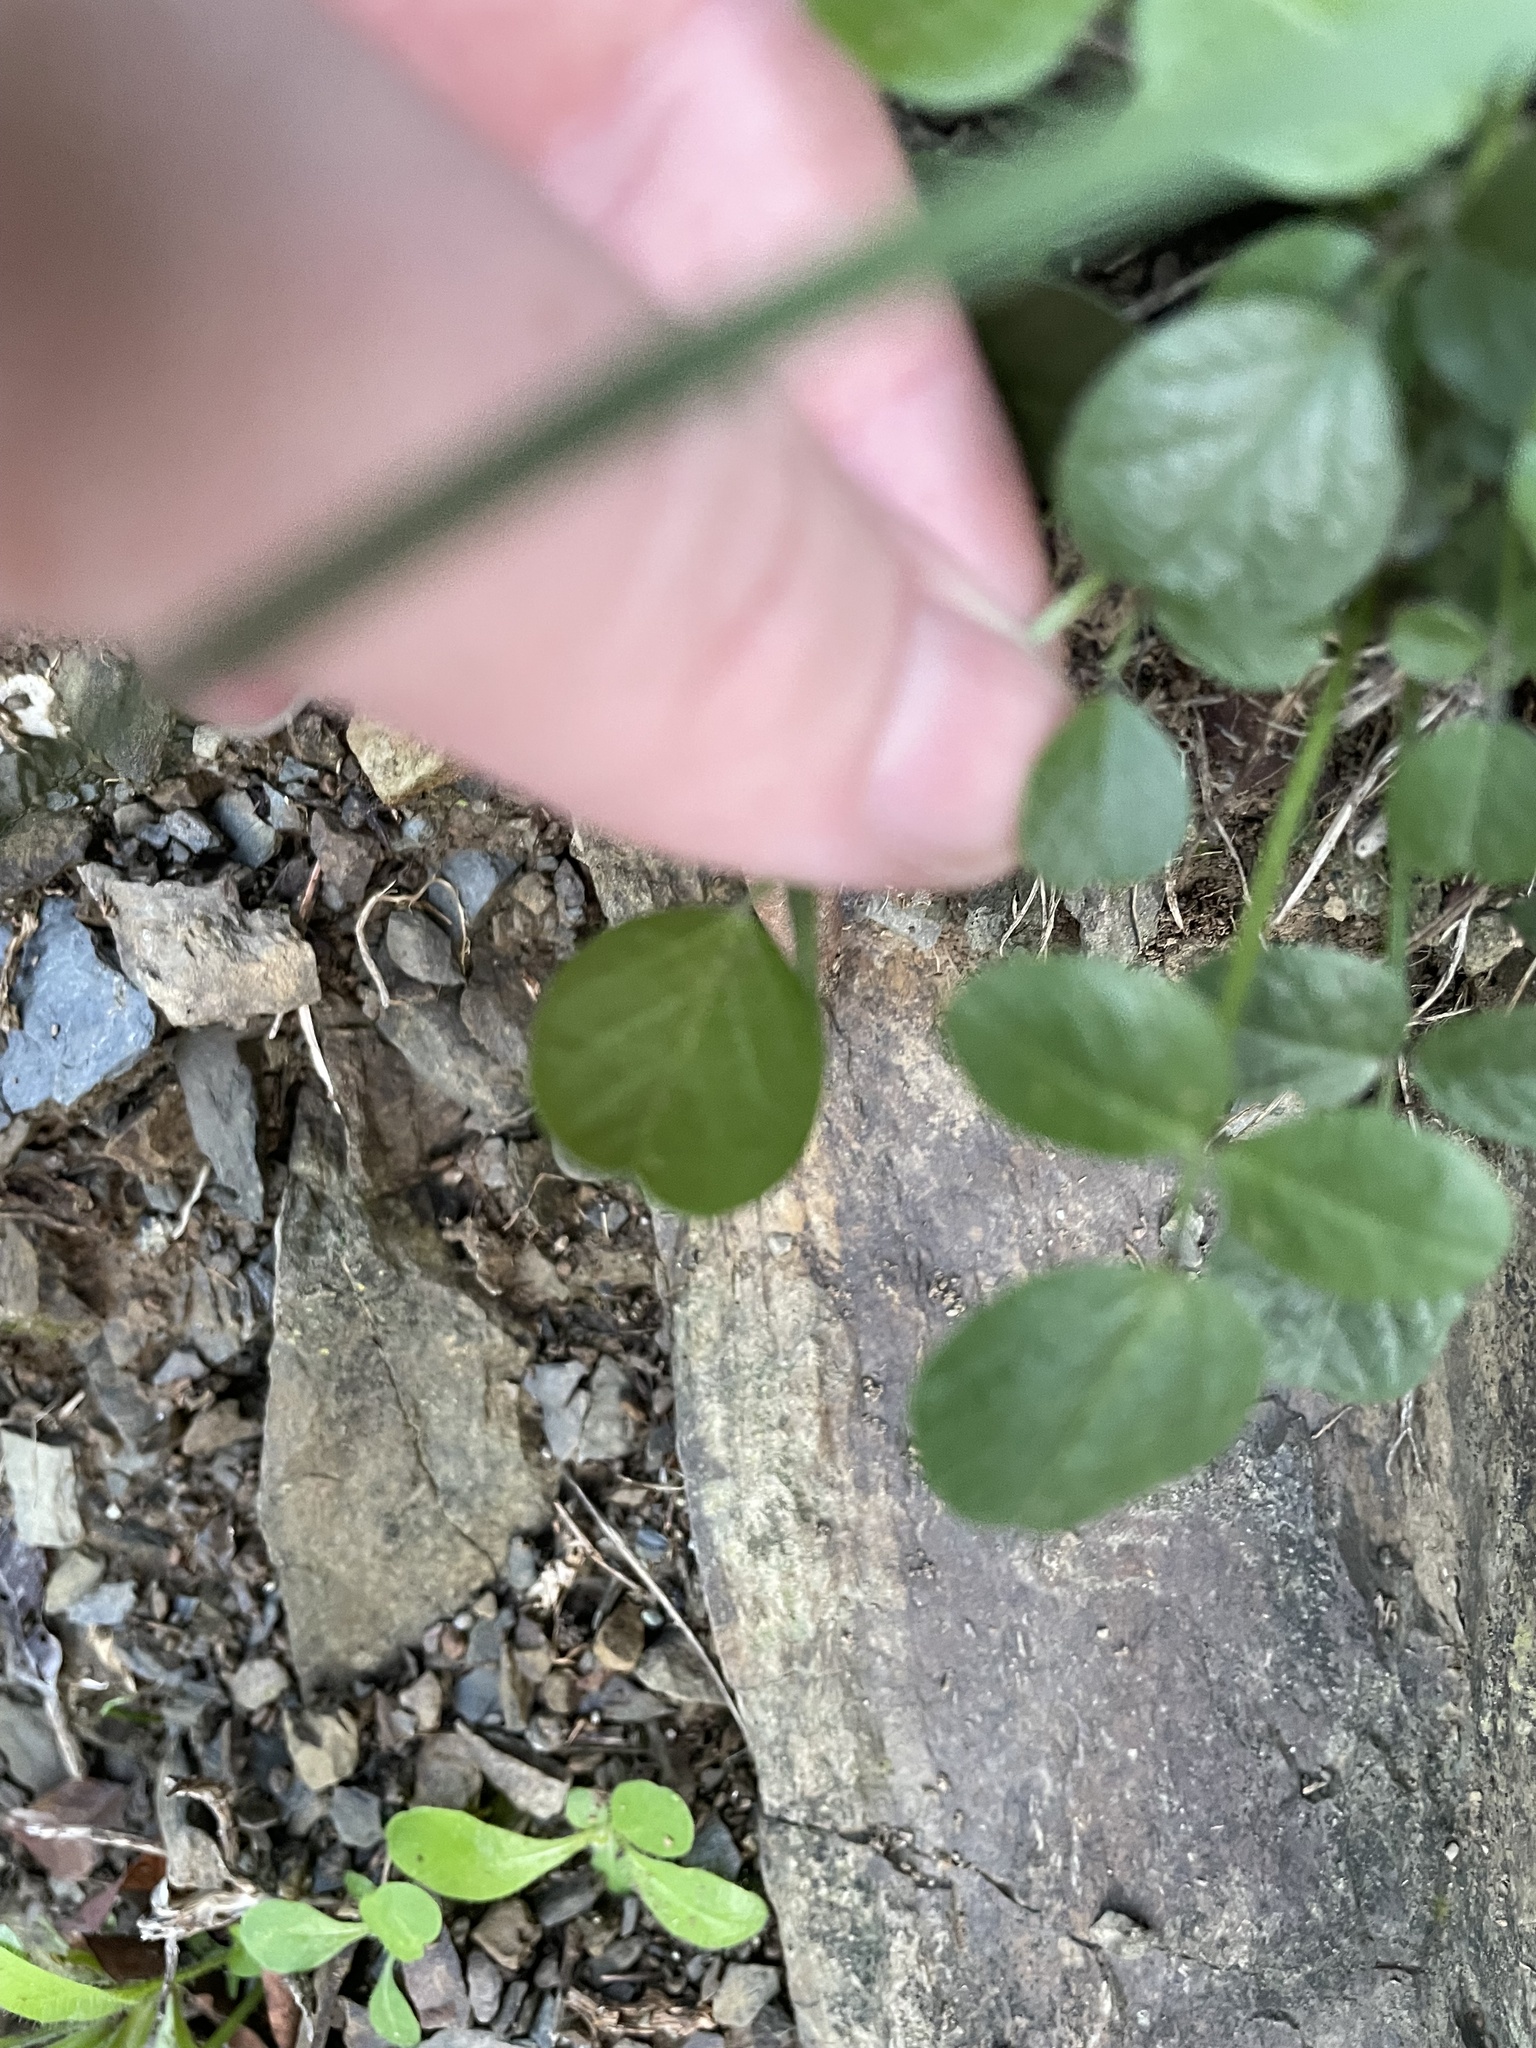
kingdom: Plantae
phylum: Tracheophyta
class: Magnoliopsida
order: Fabales
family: Fabaceae
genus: Bituminaria
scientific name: Bituminaria bituminosa
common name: Arabian pea
